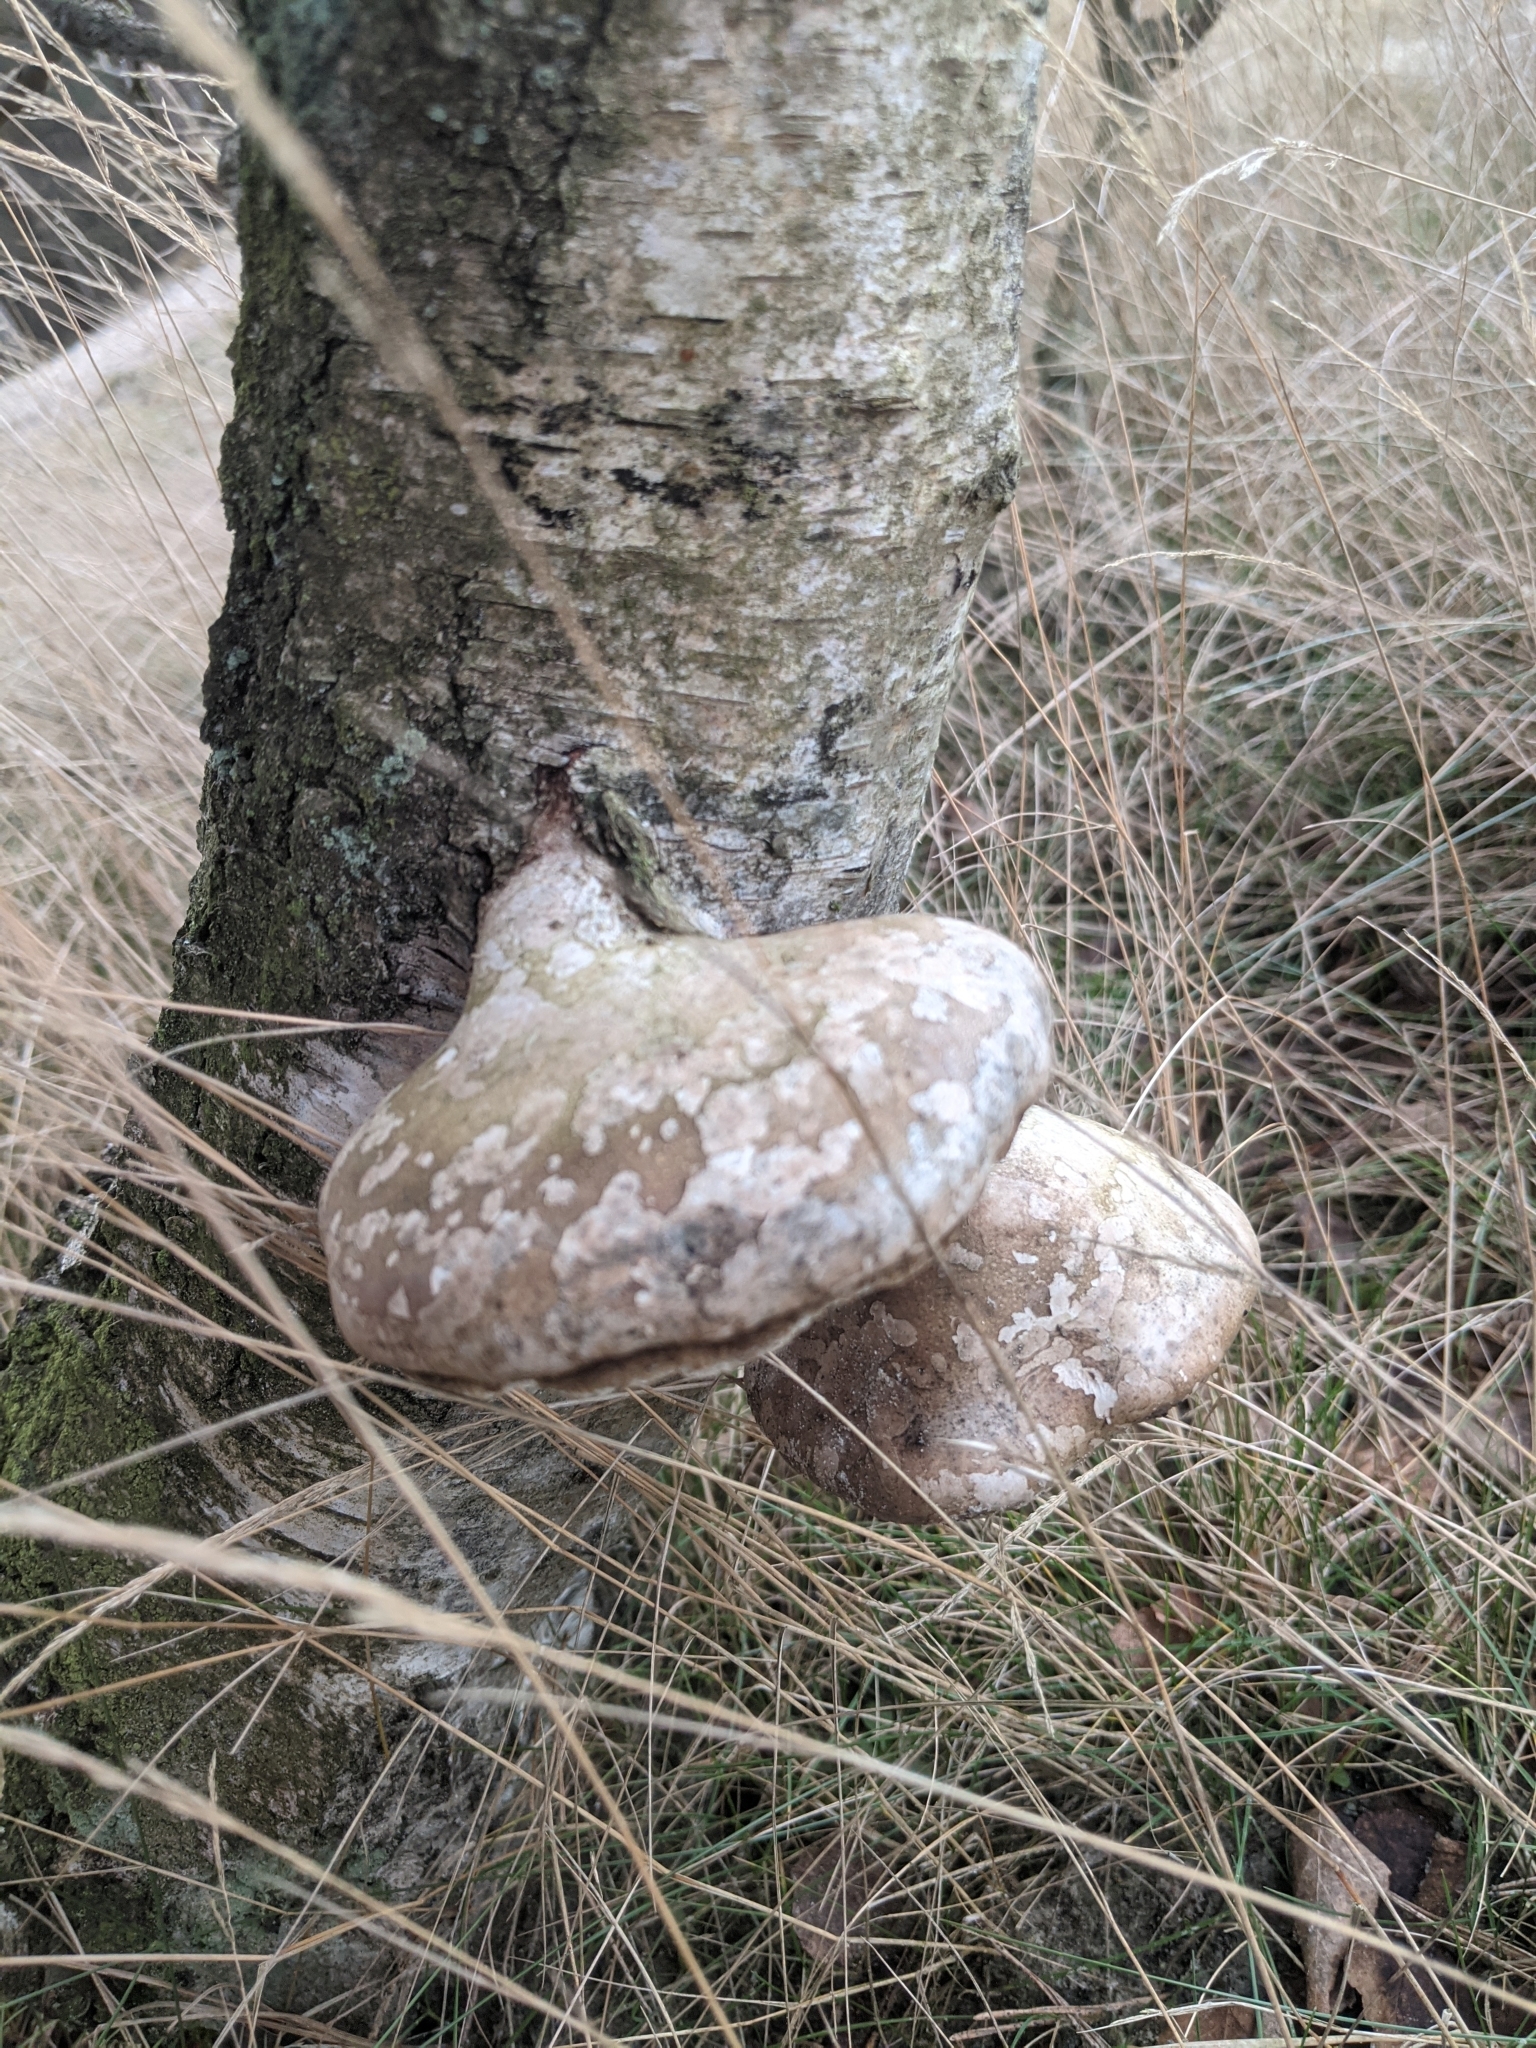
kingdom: Fungi
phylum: Basidiomycota
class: Agaricomycetes
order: Polyporales
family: Fomitopsidaceae
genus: Fomitopsis
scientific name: Fomitopsis betulina
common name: Birch polypore
